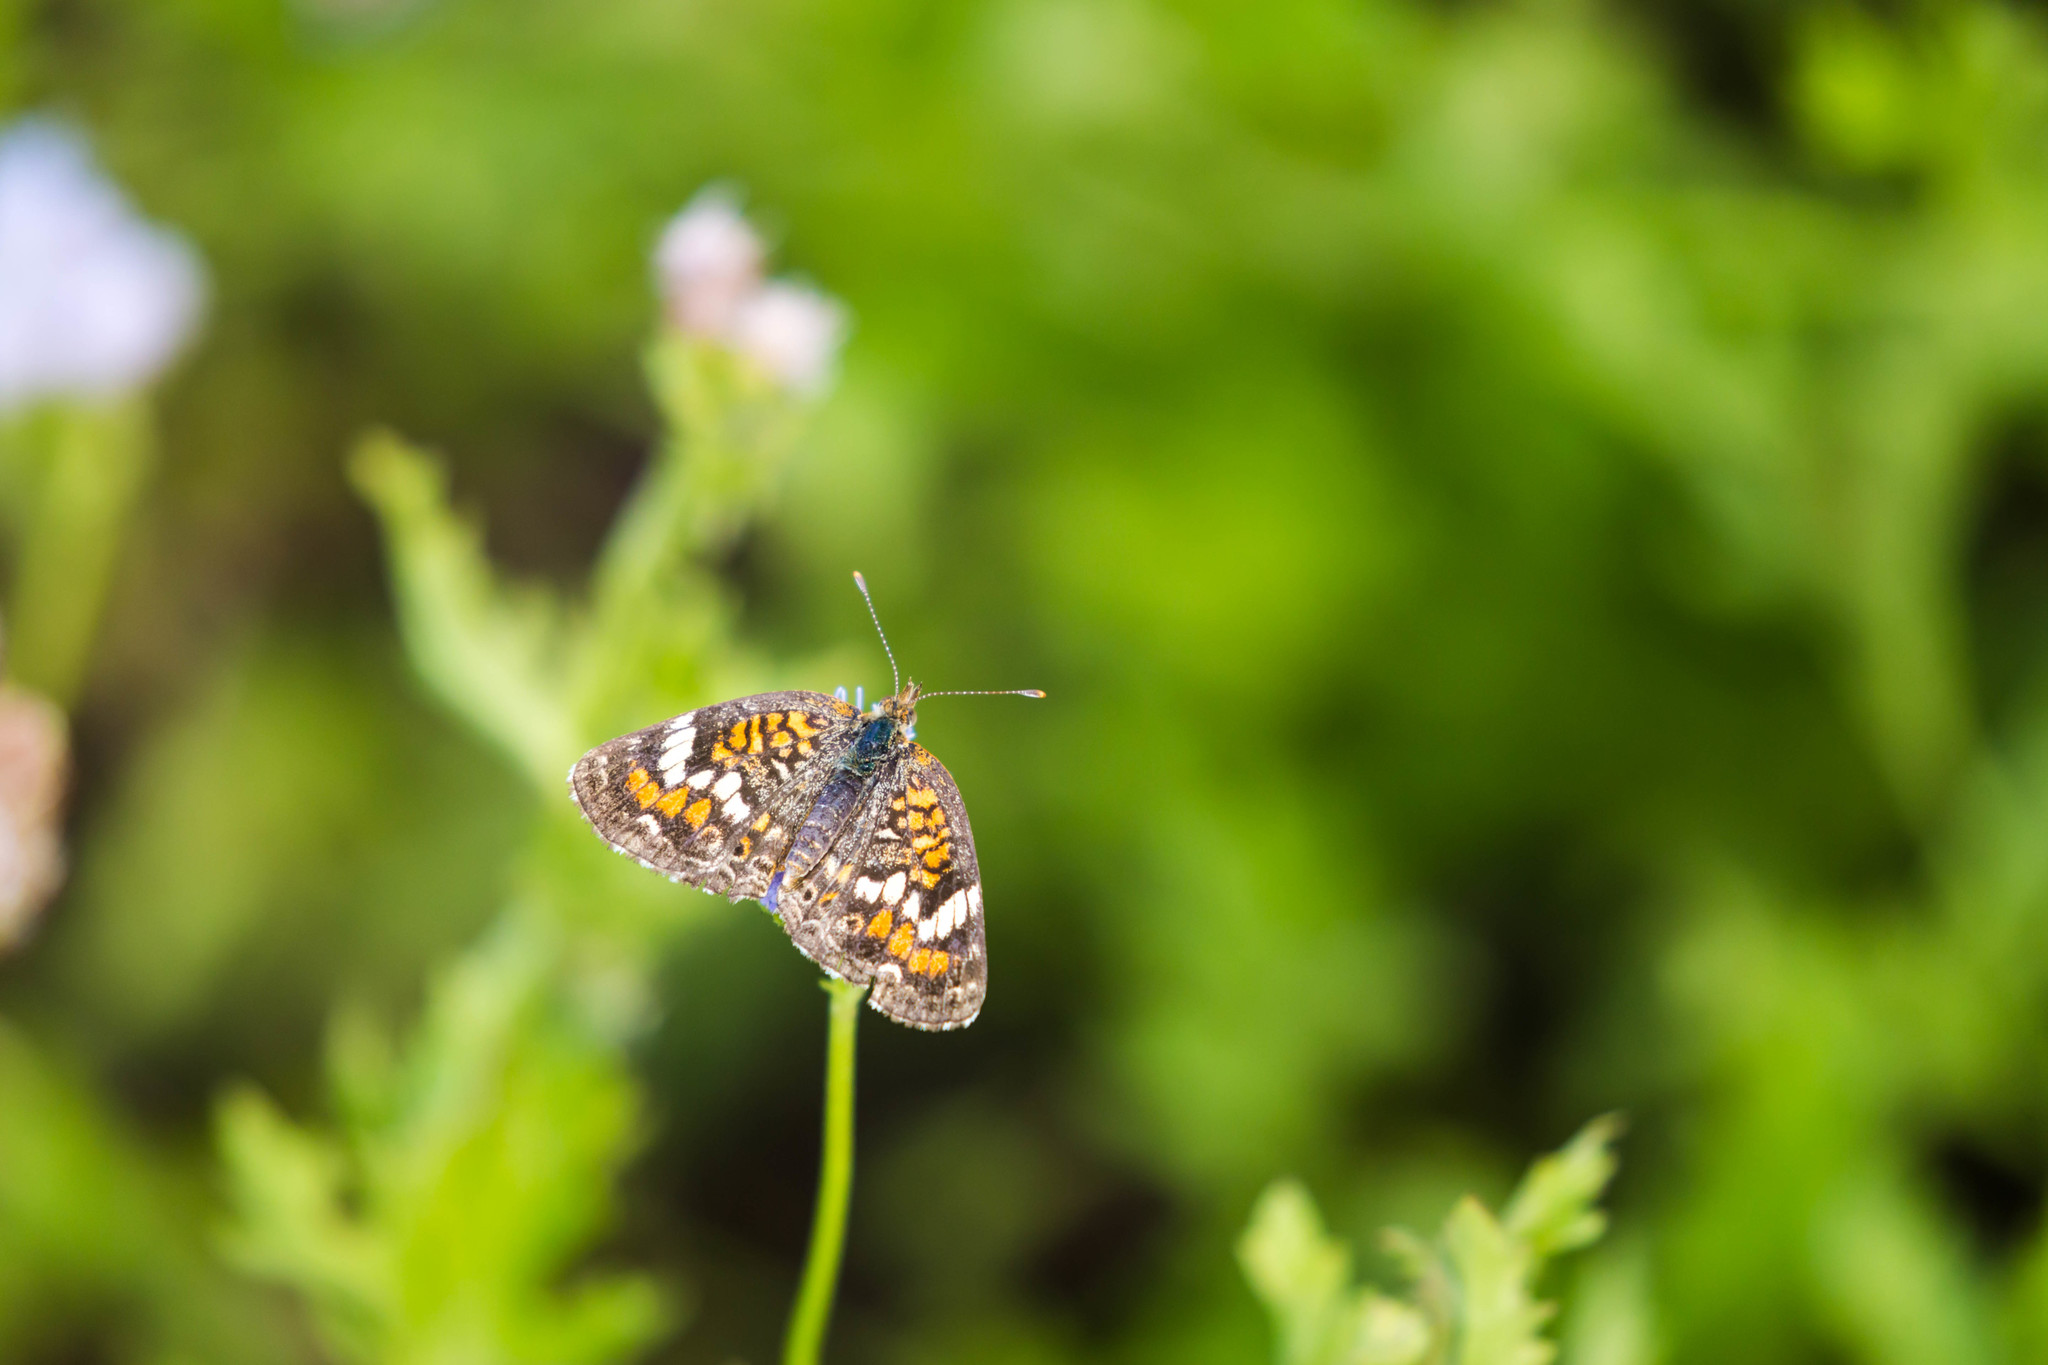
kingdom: Animalia
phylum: Arthropoda
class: Insecta
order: Lepidoptera
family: Nymphalidae
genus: Phyciodes
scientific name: Phyciodes phaon
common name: Phaon crescent
